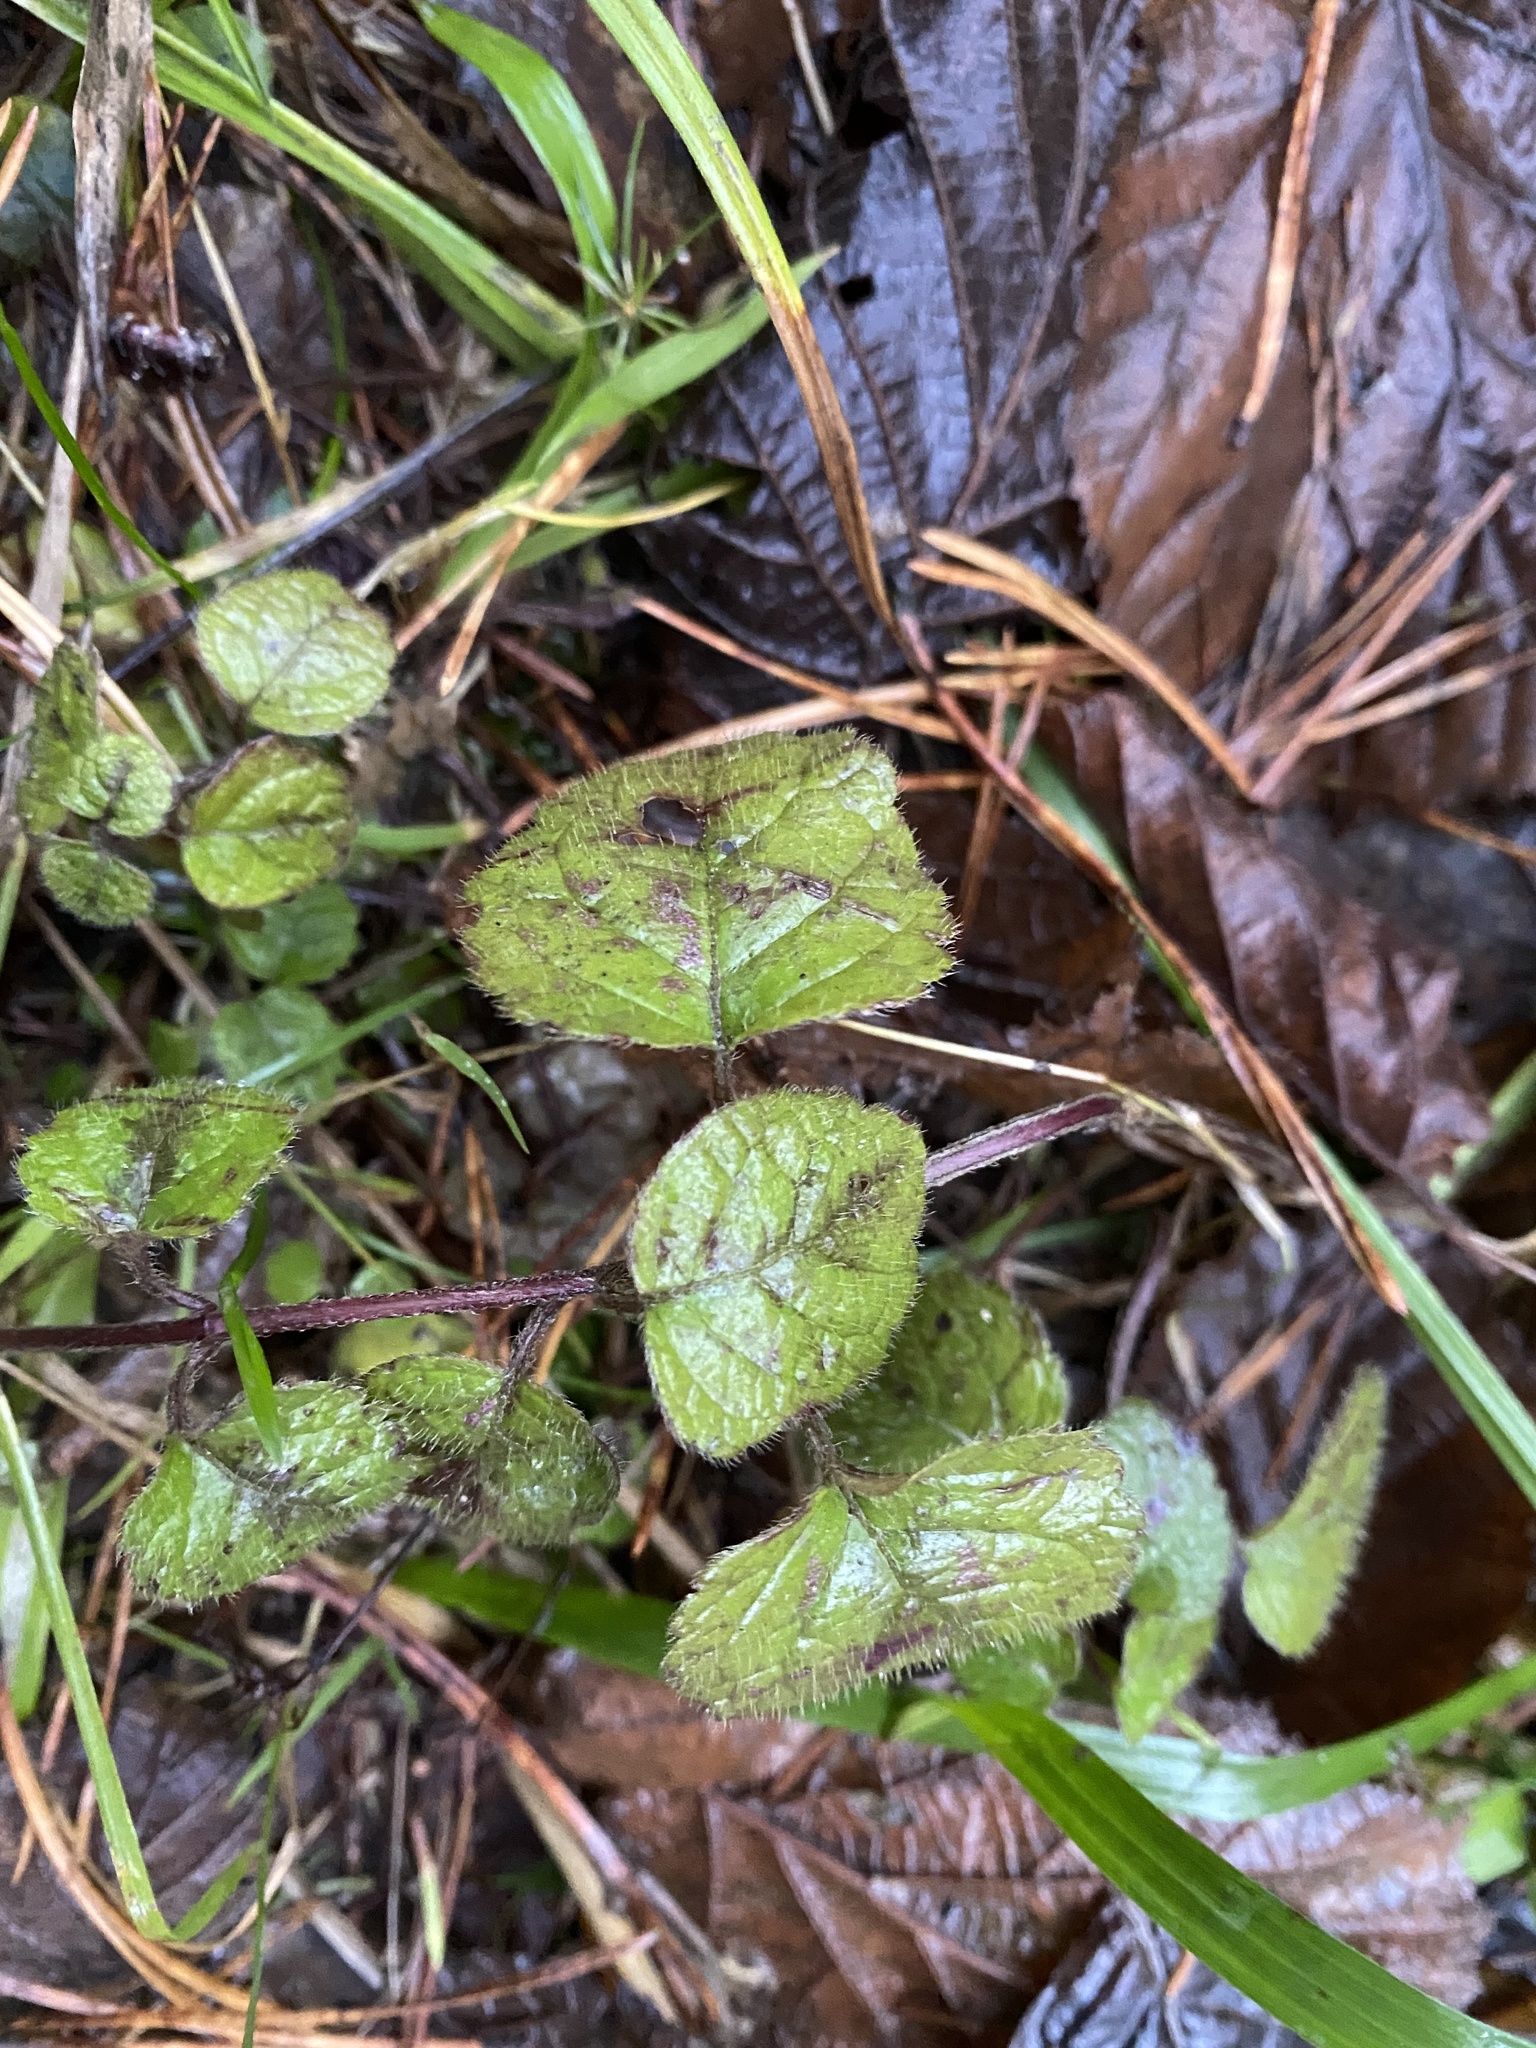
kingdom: Plantae
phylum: Tracheophyta
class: Magnoliopsida
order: Lamiales
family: Lamiaceae
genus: Lamium
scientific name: Lamium galeobdolon
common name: Yellow archangel
